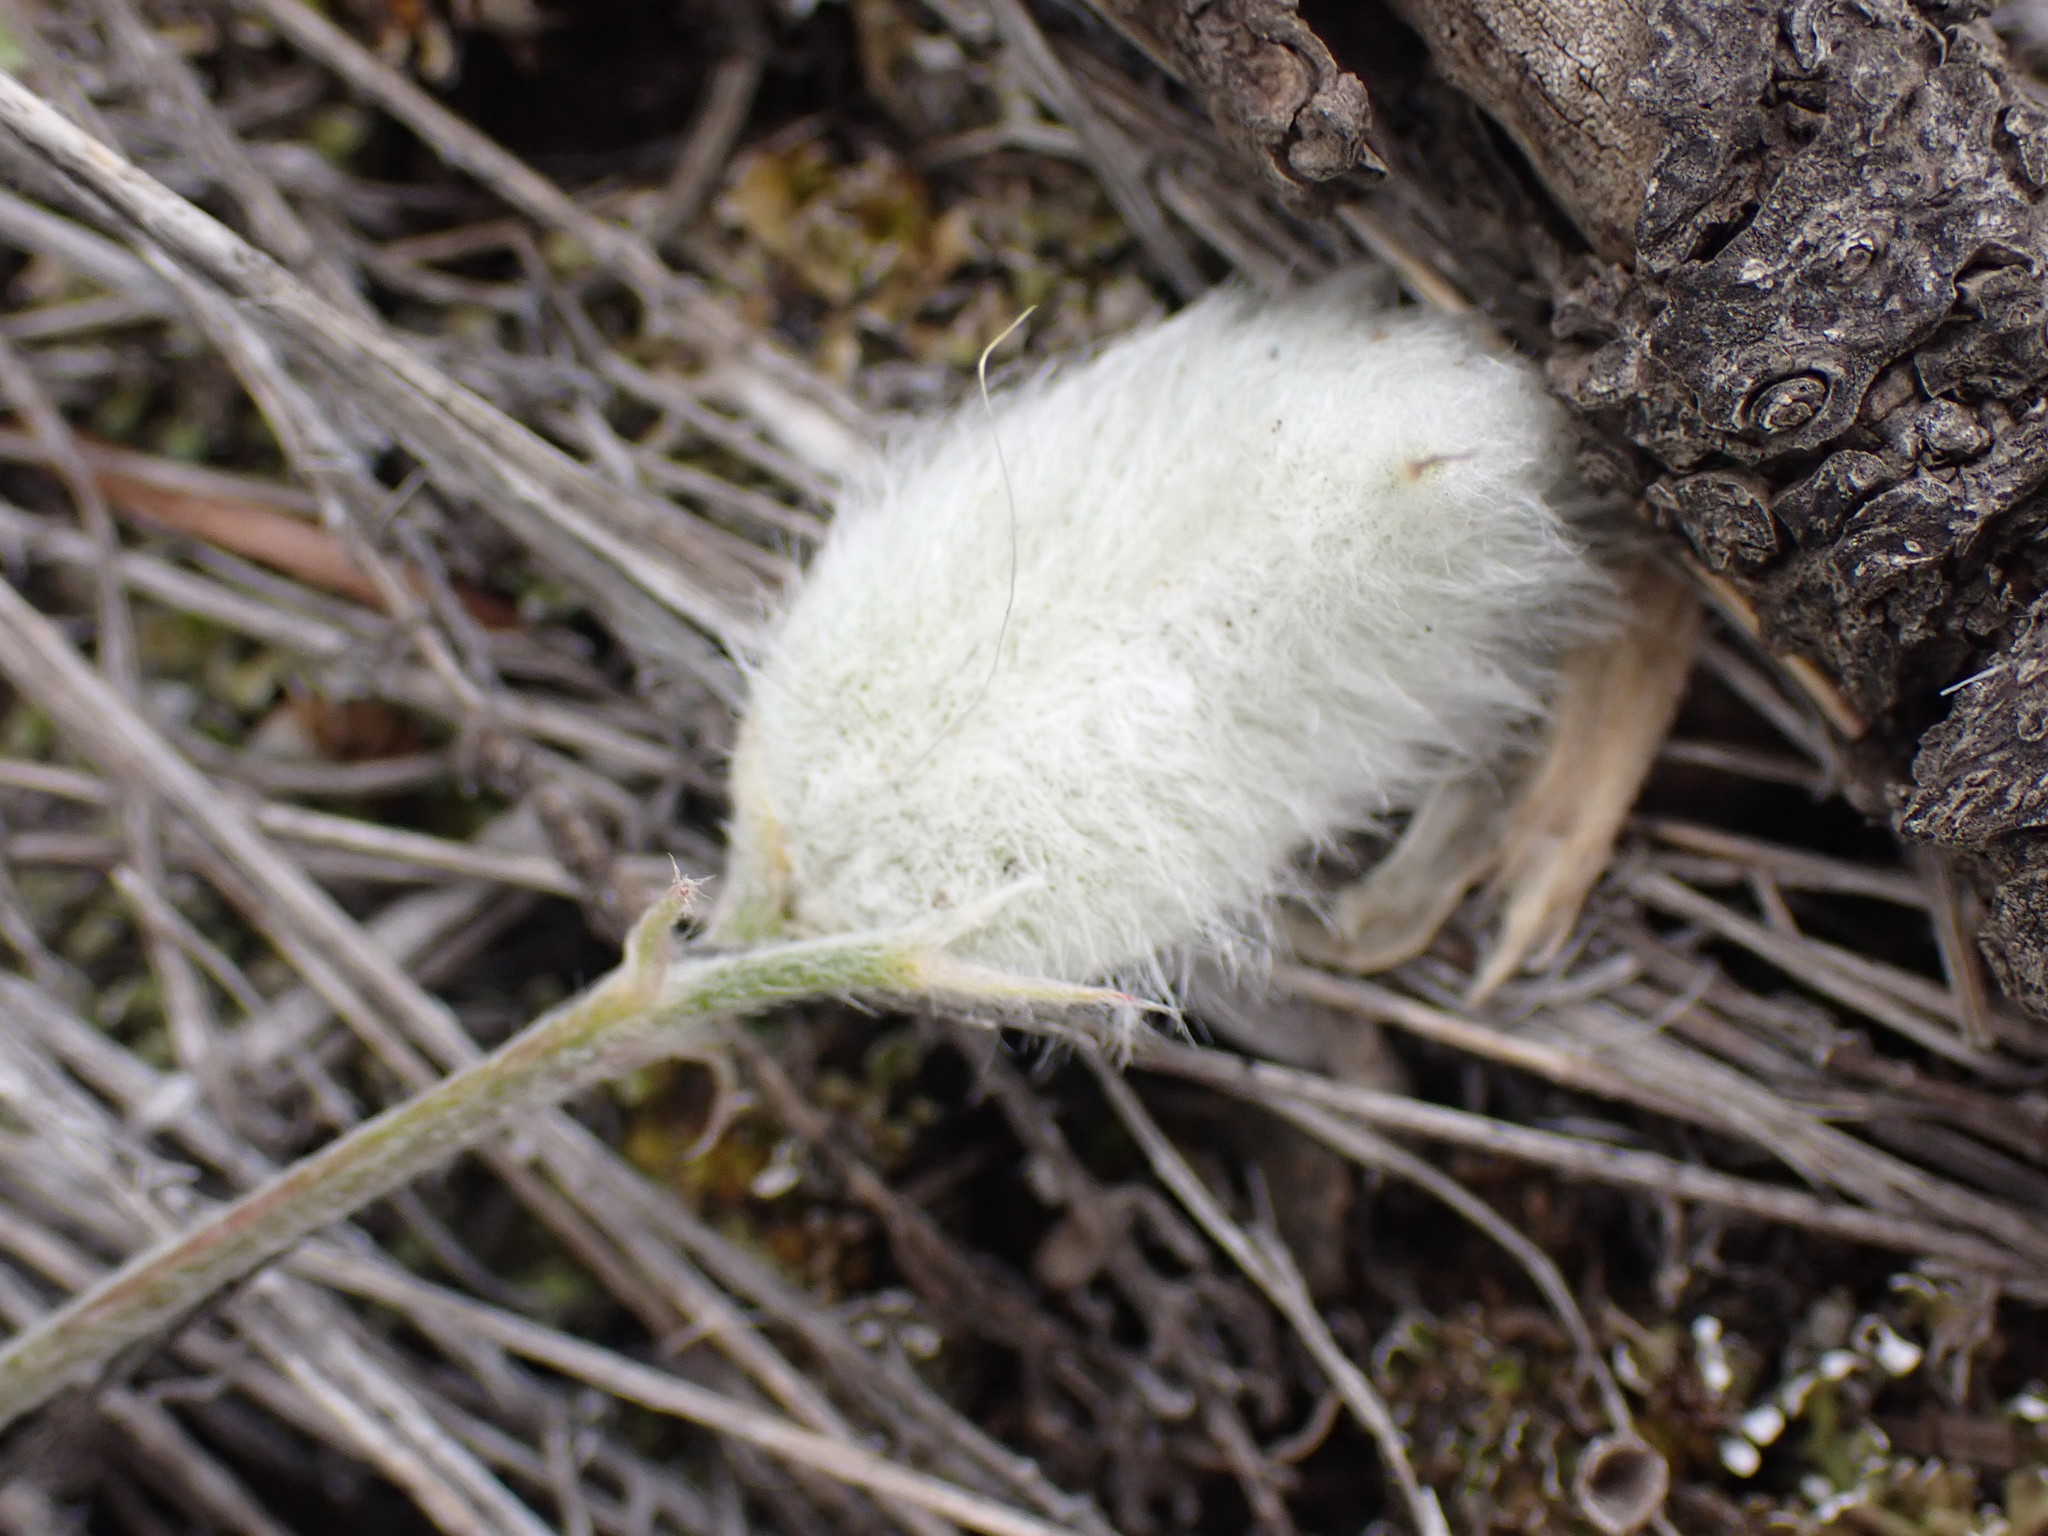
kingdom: Plantae
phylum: Tracheophyta
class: Magnoliopsida
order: Fabales
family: Fabaceae
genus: Astragalus
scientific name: Astragalus purshii
